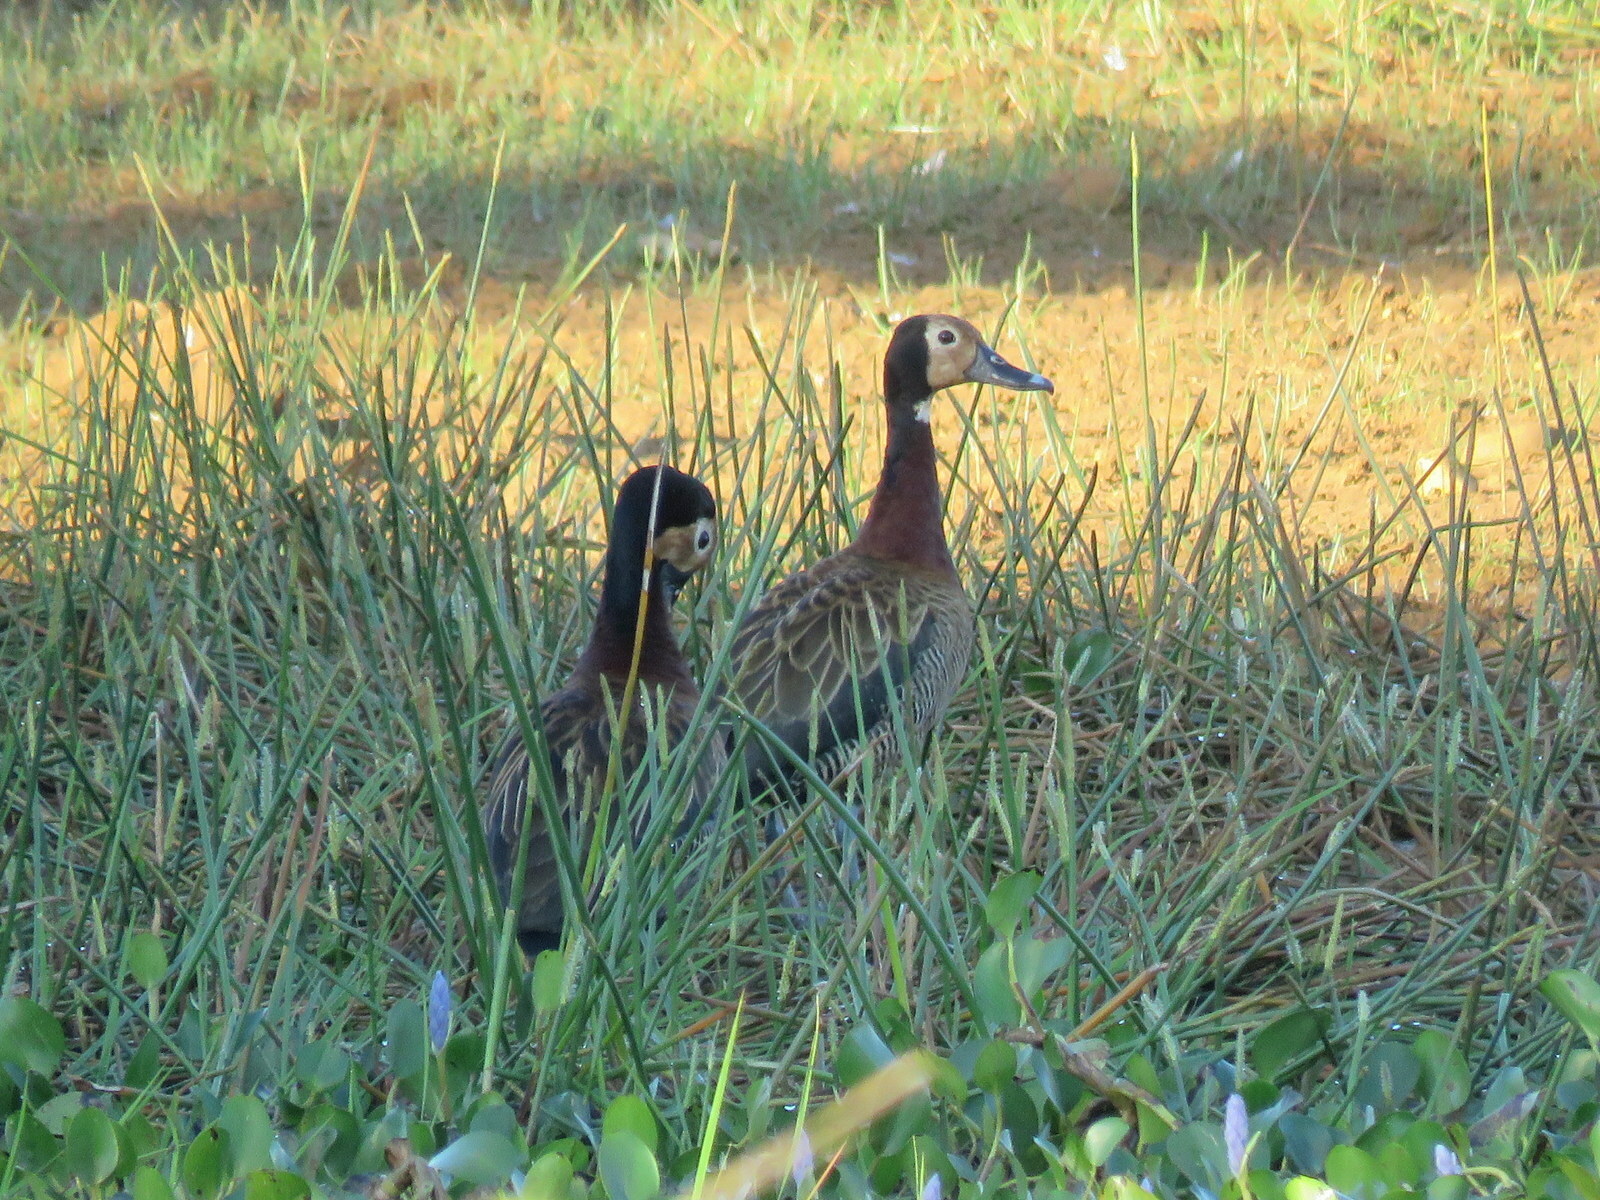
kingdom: Animalia
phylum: Chordata
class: Aves
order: Anseriformes
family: Anatidae
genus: Dendrocygna
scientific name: Dendrocygna viduata
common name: White-faced whistling duck
